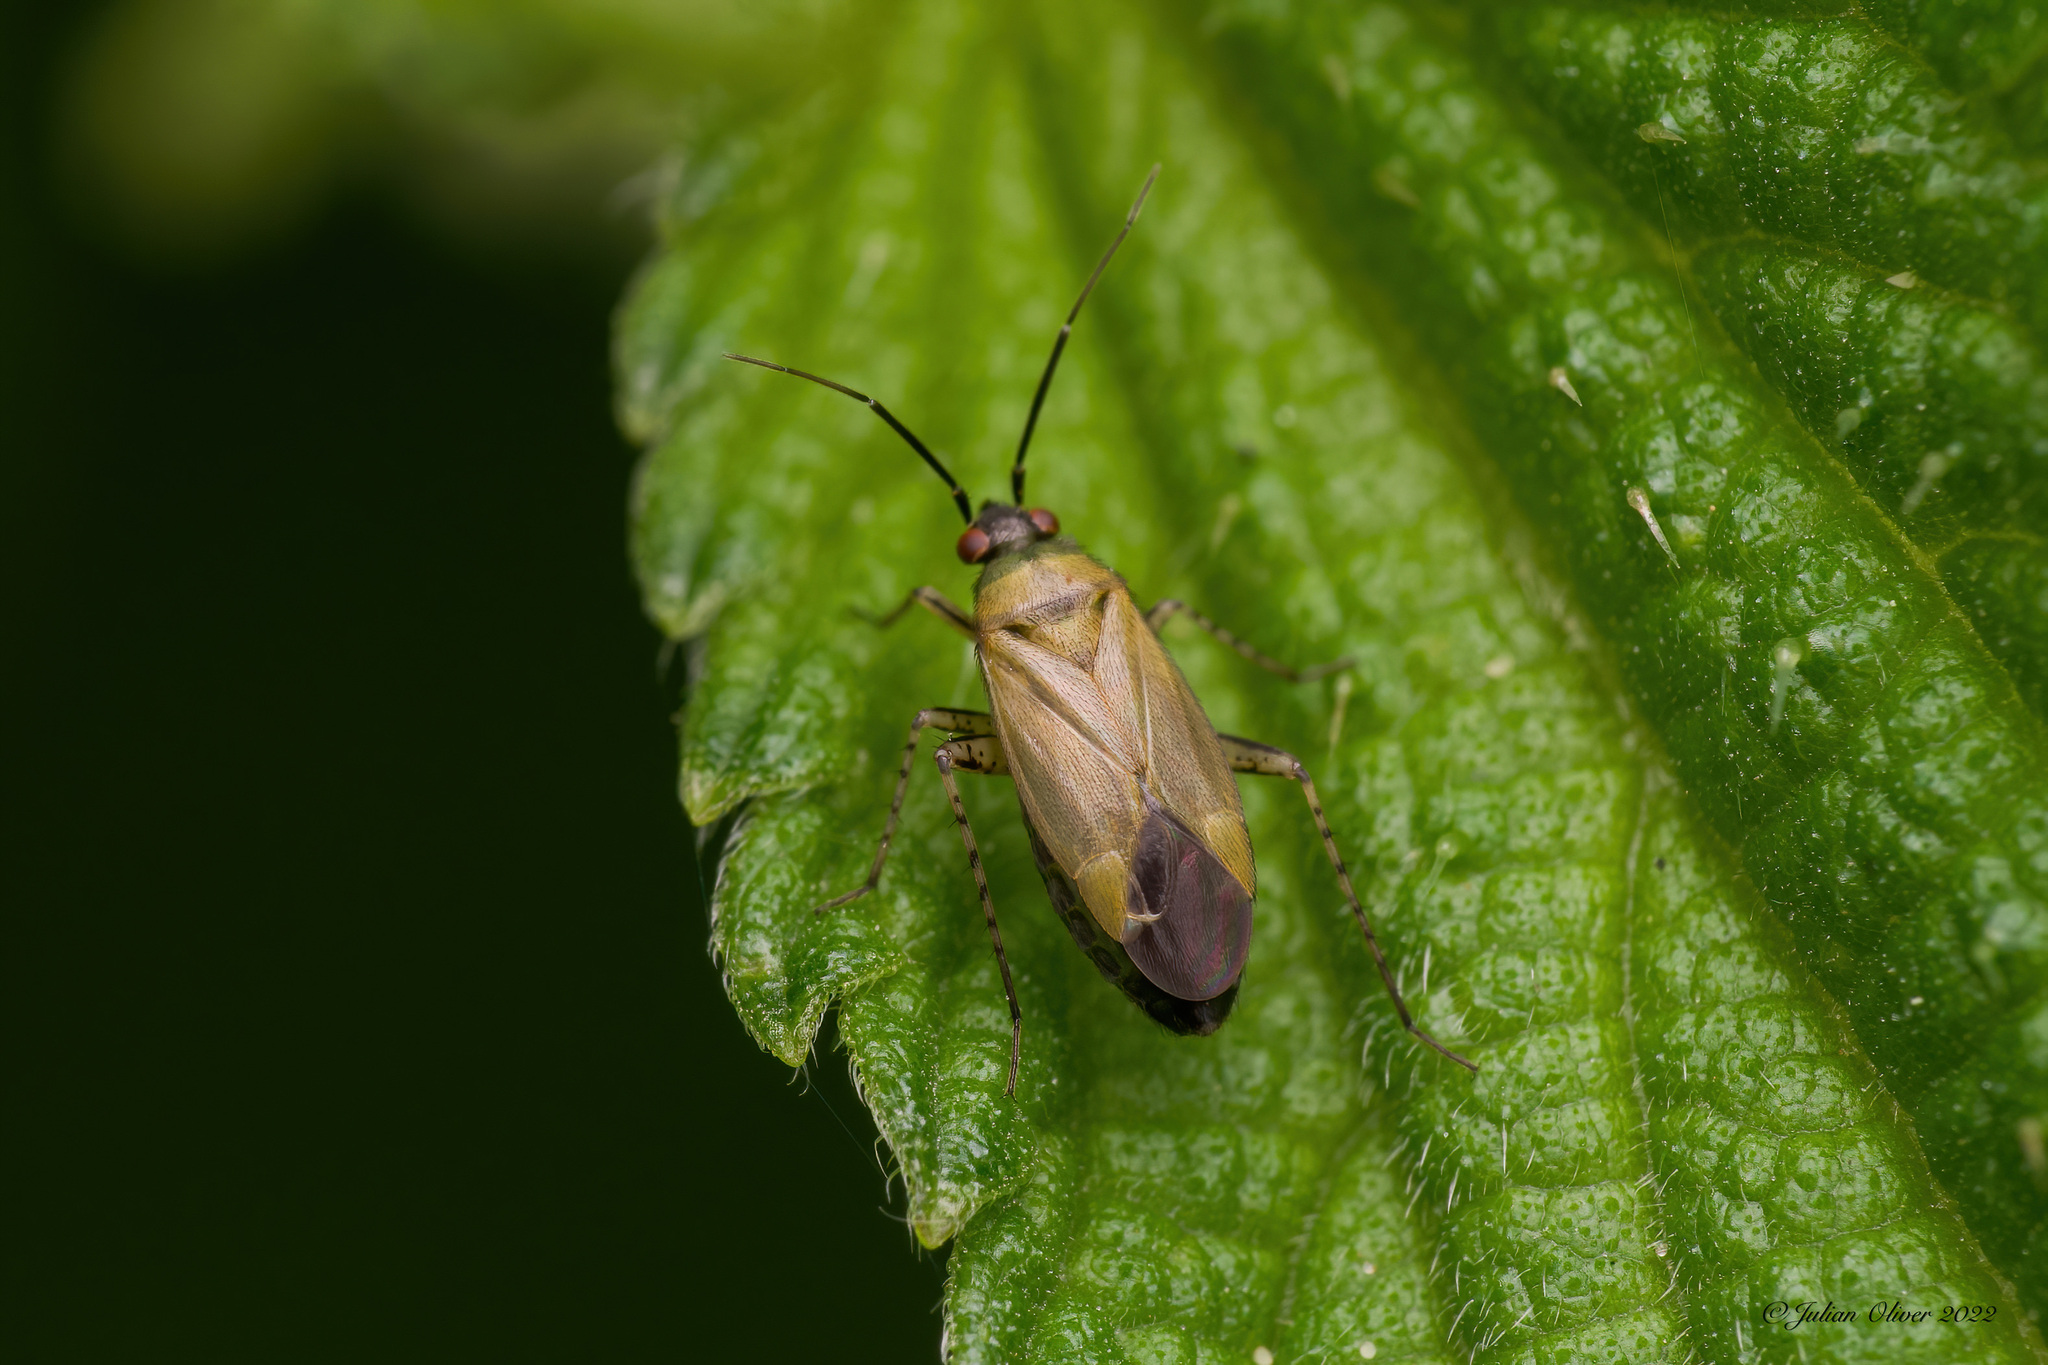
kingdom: Animalia
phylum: Arthropoda
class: Insecta
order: Hemiptera
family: Miridae
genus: Plagiognathus
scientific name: Plagiognathus arbustorum
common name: Plant bug
